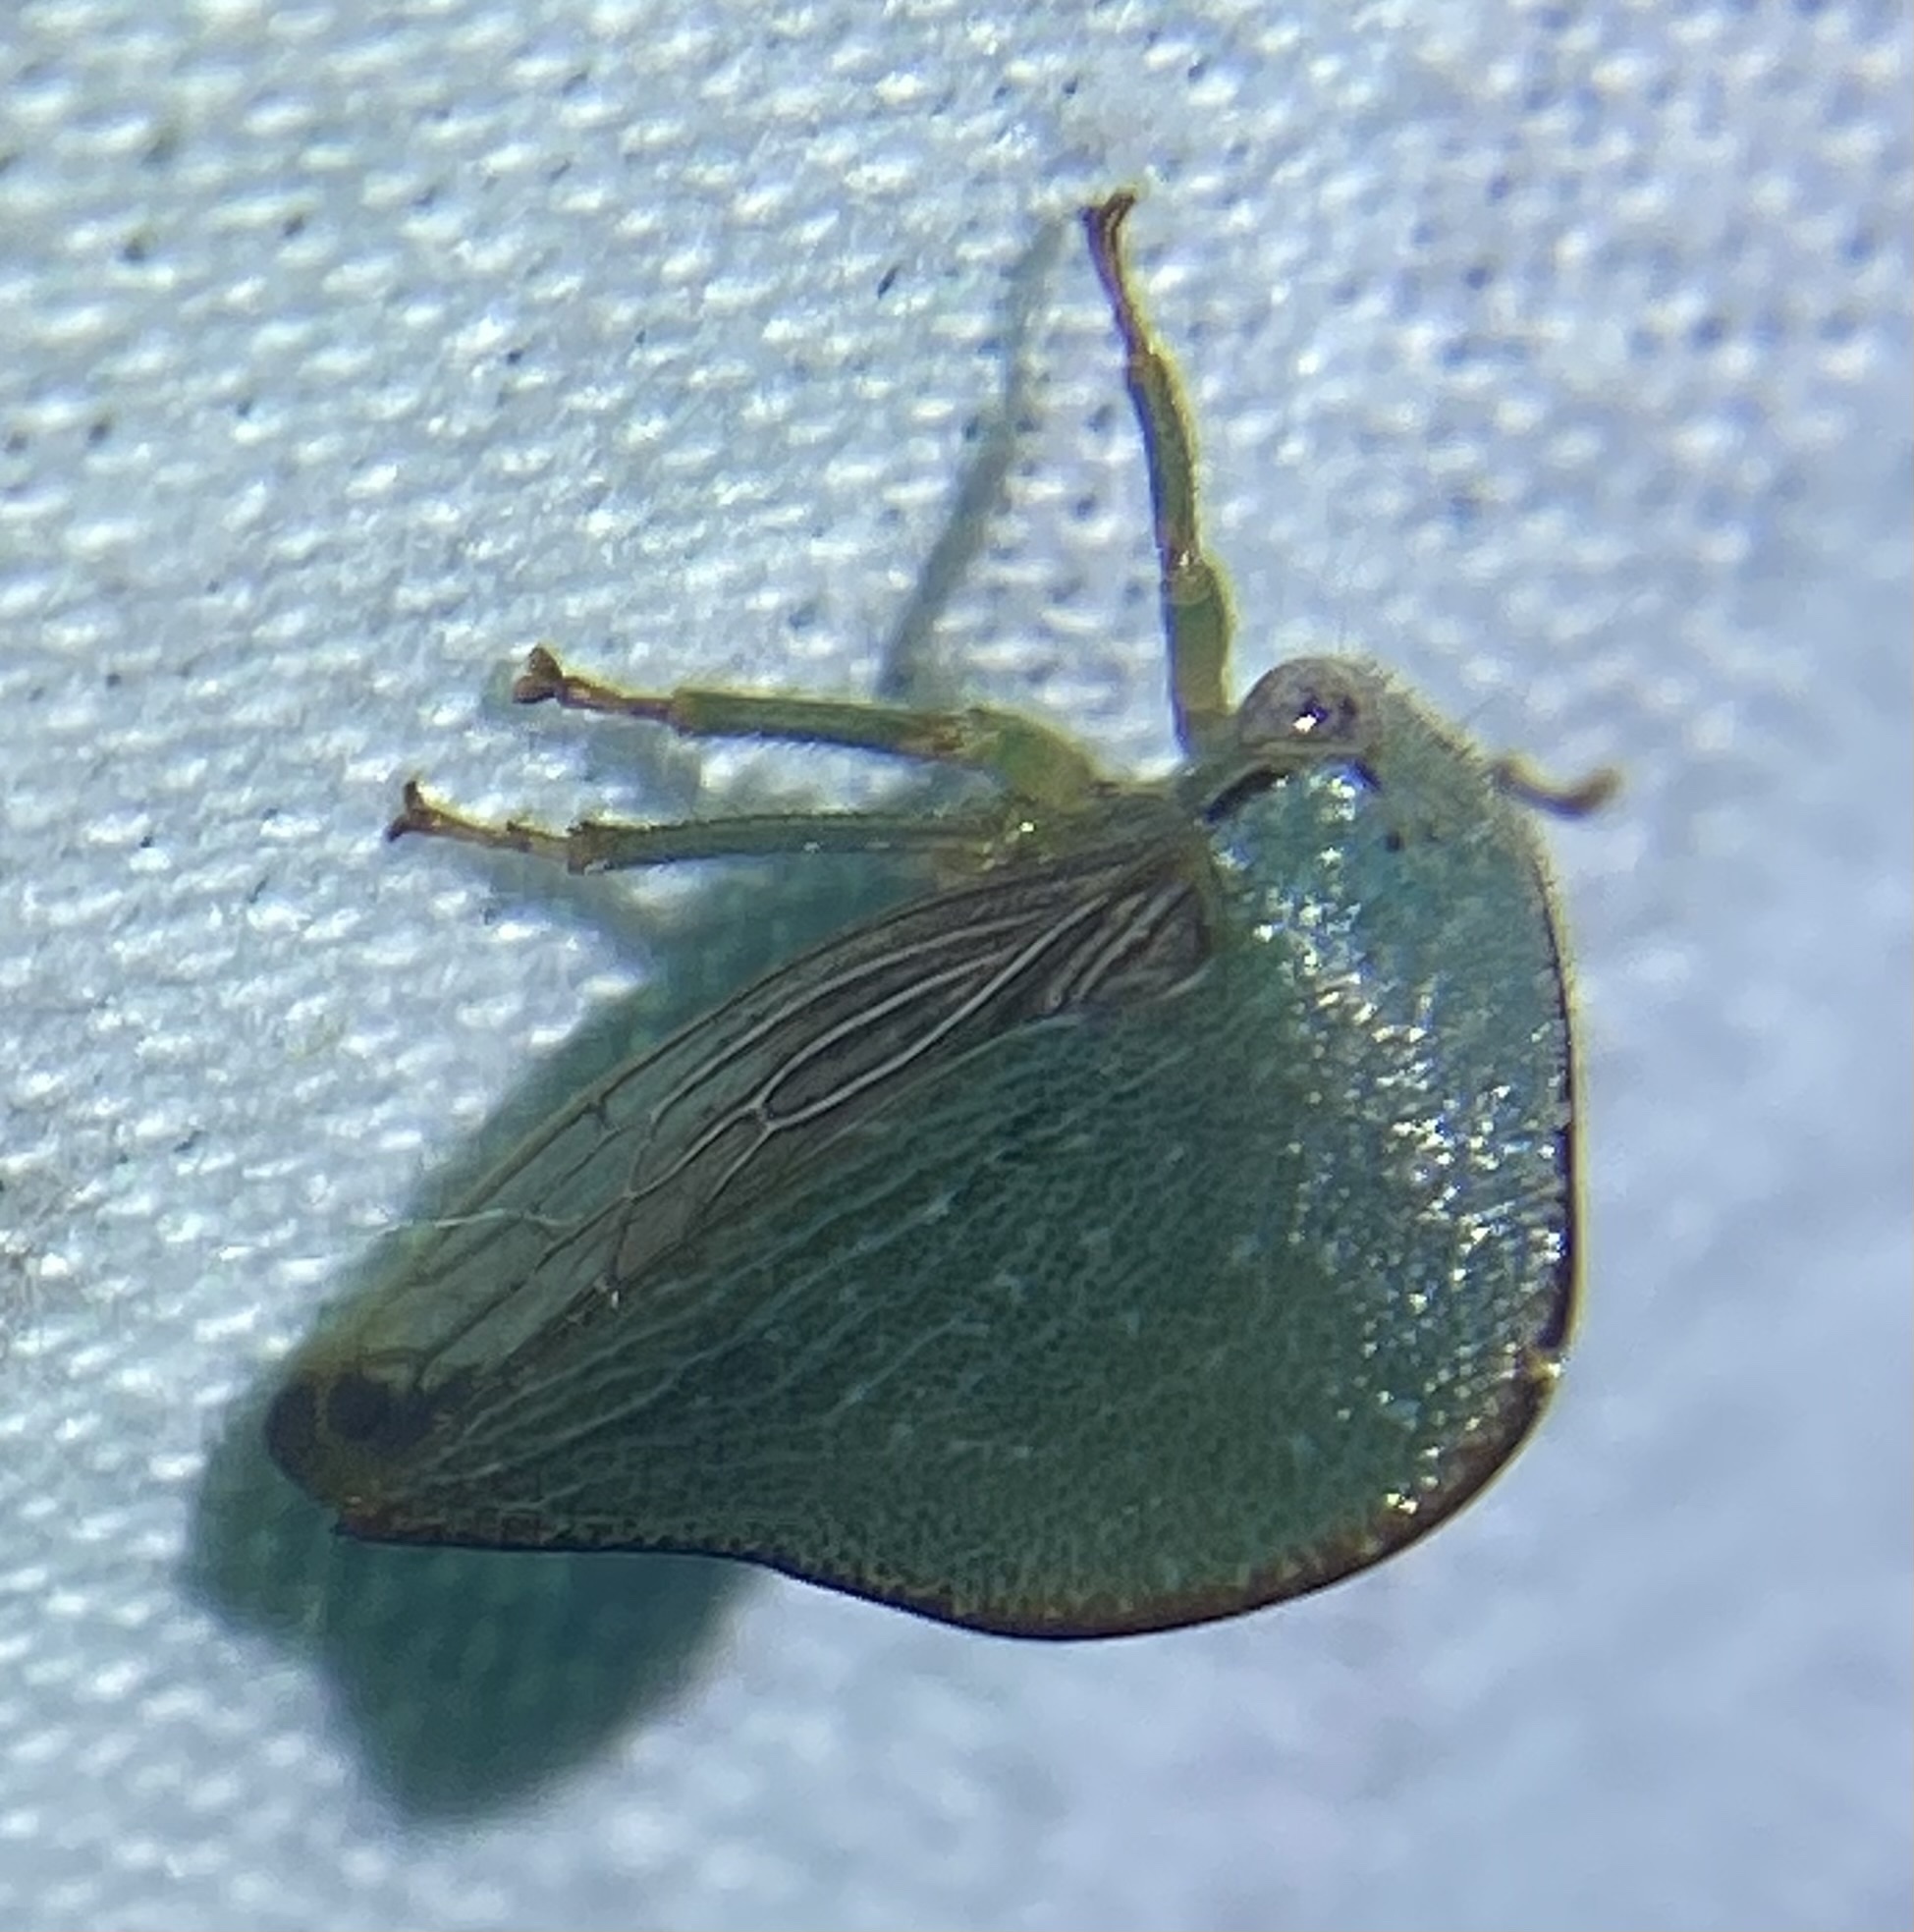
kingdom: Animalia
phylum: Arthropoda
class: Insecta
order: Hemiptera
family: Membracidae
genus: Archasia
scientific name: Archasia pallida
